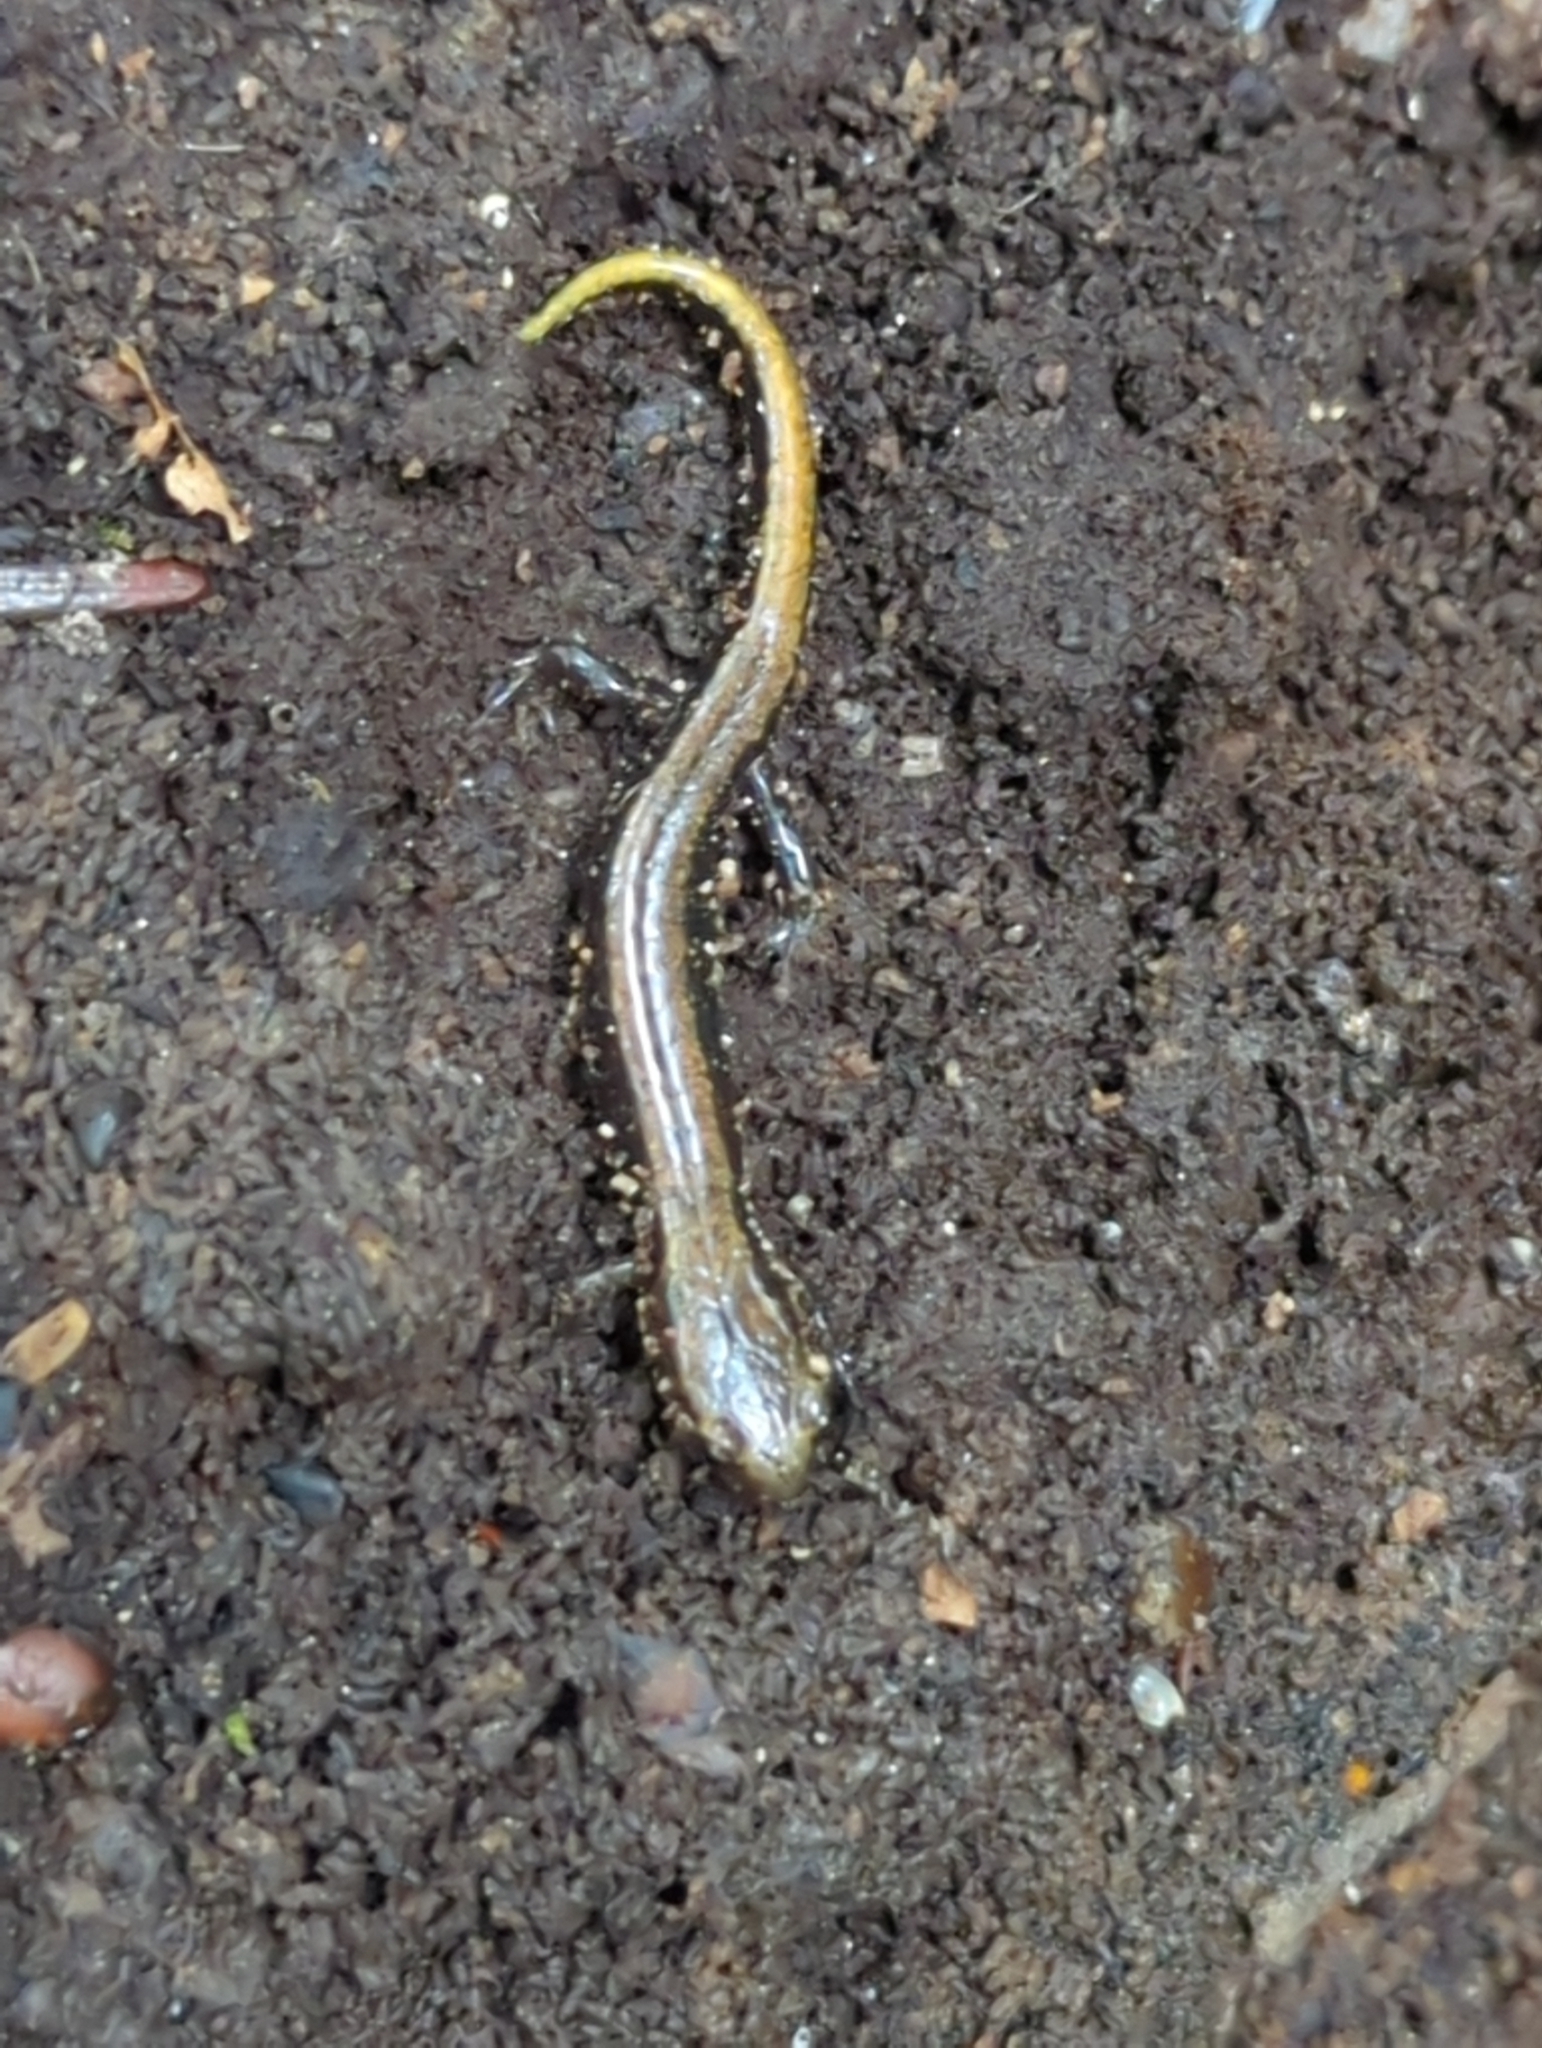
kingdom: Animalia
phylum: Chordata
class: Amphibia
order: Caudata
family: Plethodontidae
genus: Desmognathus
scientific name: Desmognathus ochrophaeus
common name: Allegheny mountain dusky salamander
